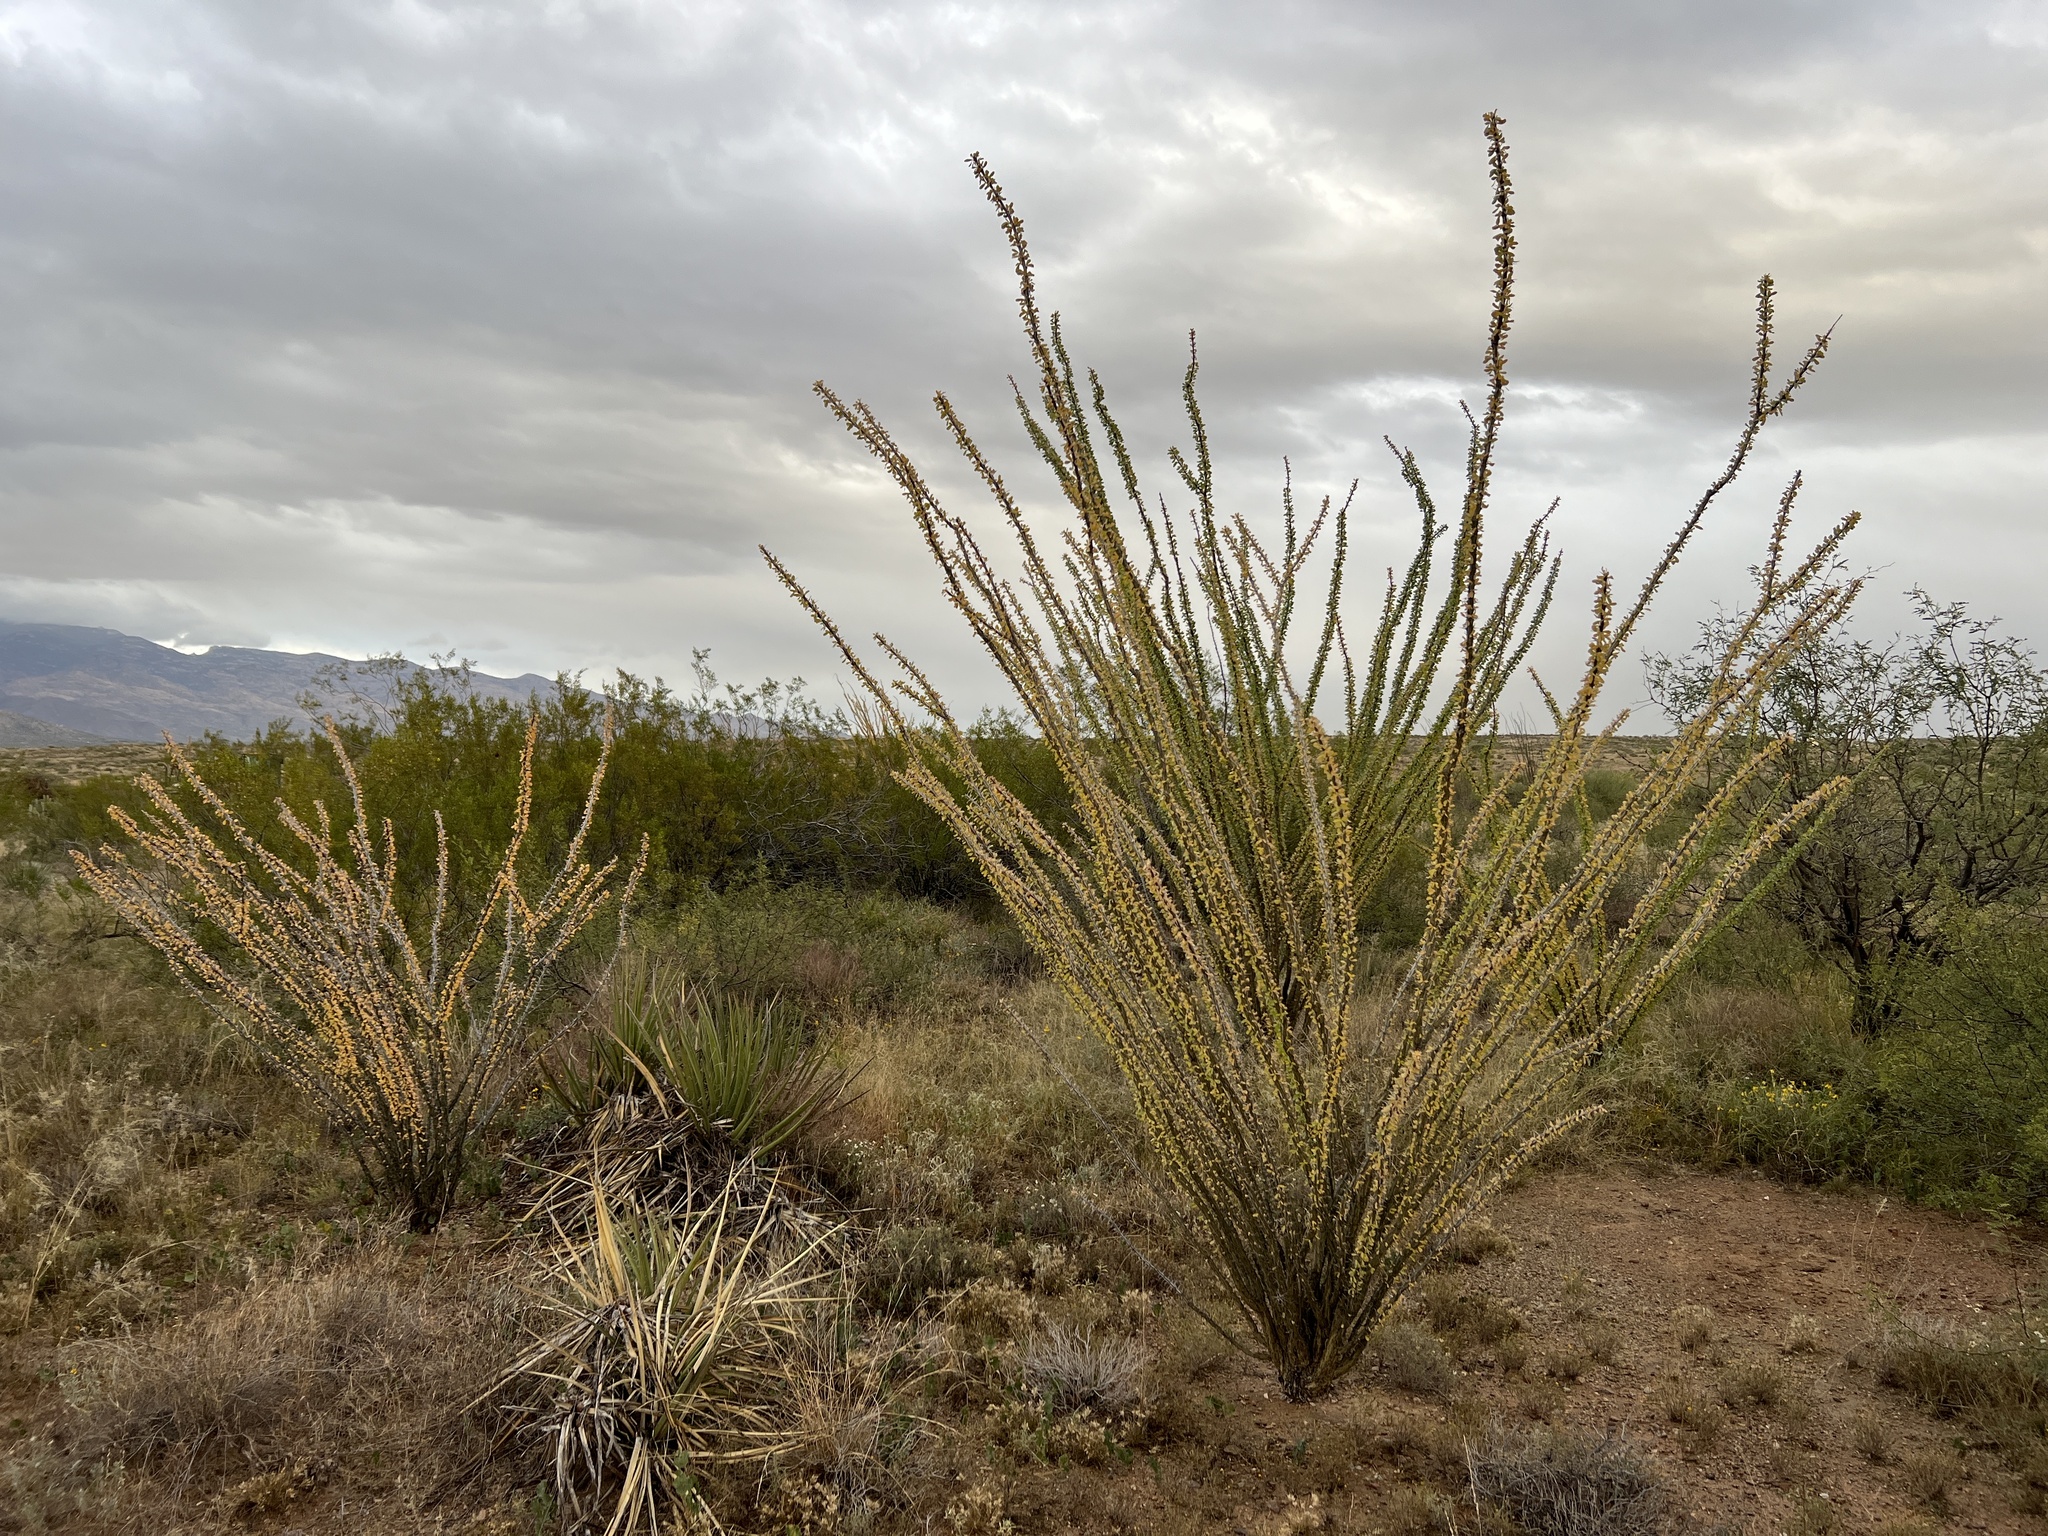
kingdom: Plantae
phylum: Tracheophyta
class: Magnoliopsida
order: Ericales
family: Fouquieriaceae
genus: Fouquieria
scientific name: Fouquieria splendens
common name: Vine-cactus
